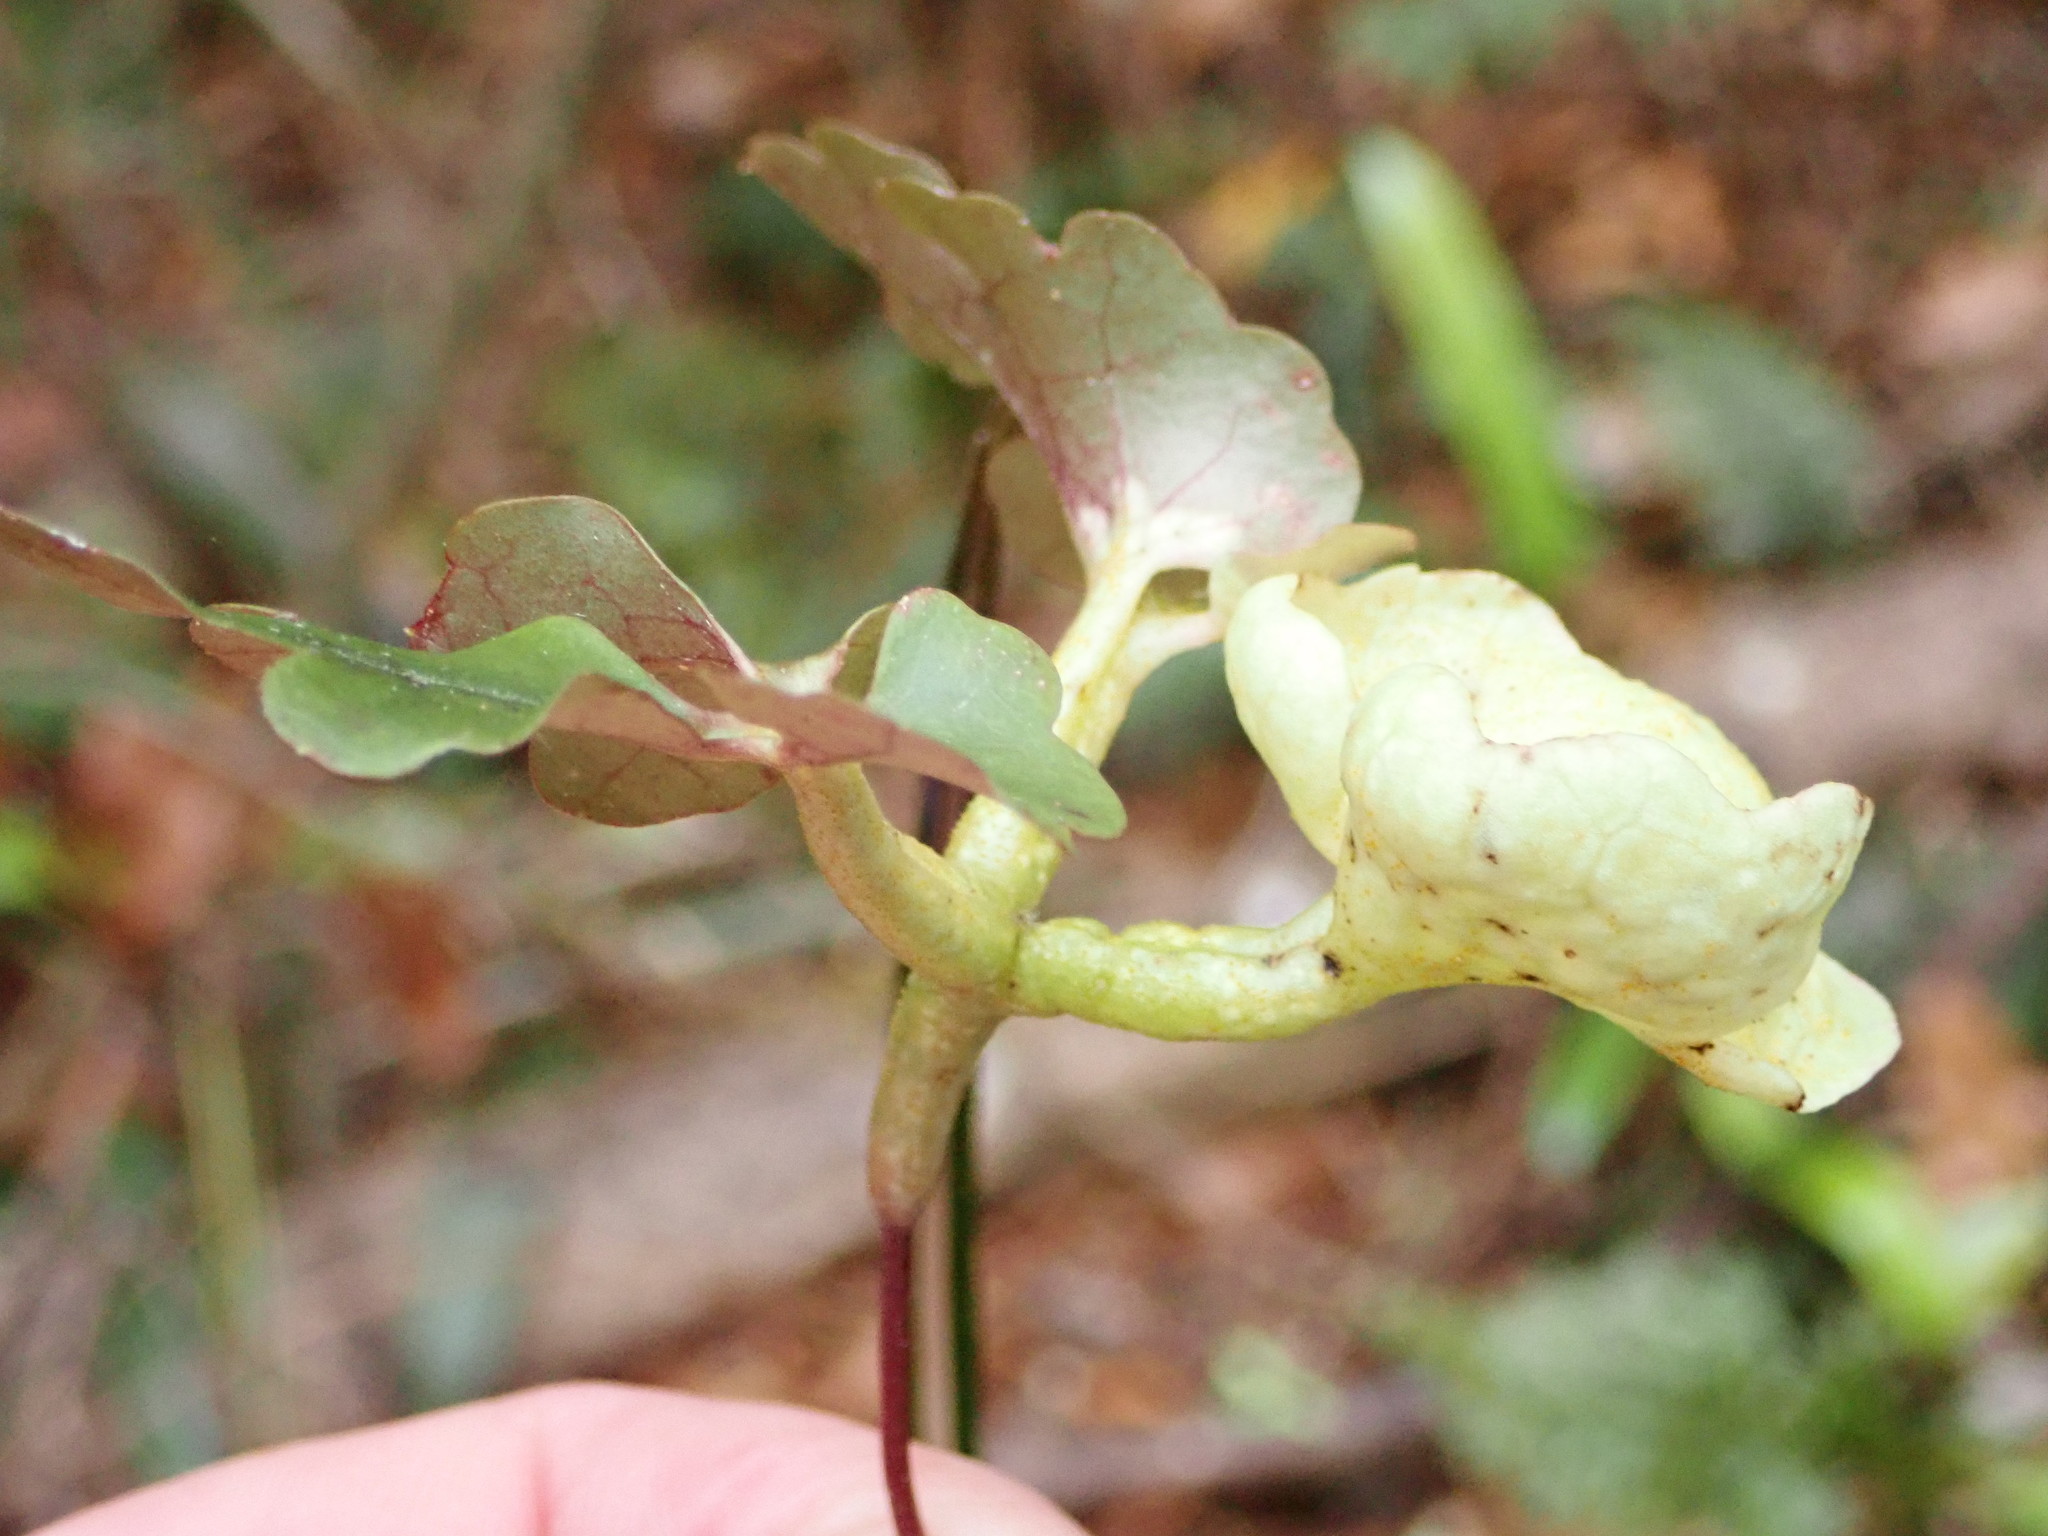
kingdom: Fungi
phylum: Basidiomycota
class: Pucciniomycetes
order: Pucciniales
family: Pucciniaceae
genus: Puccinia
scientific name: Puccinia otagensis
